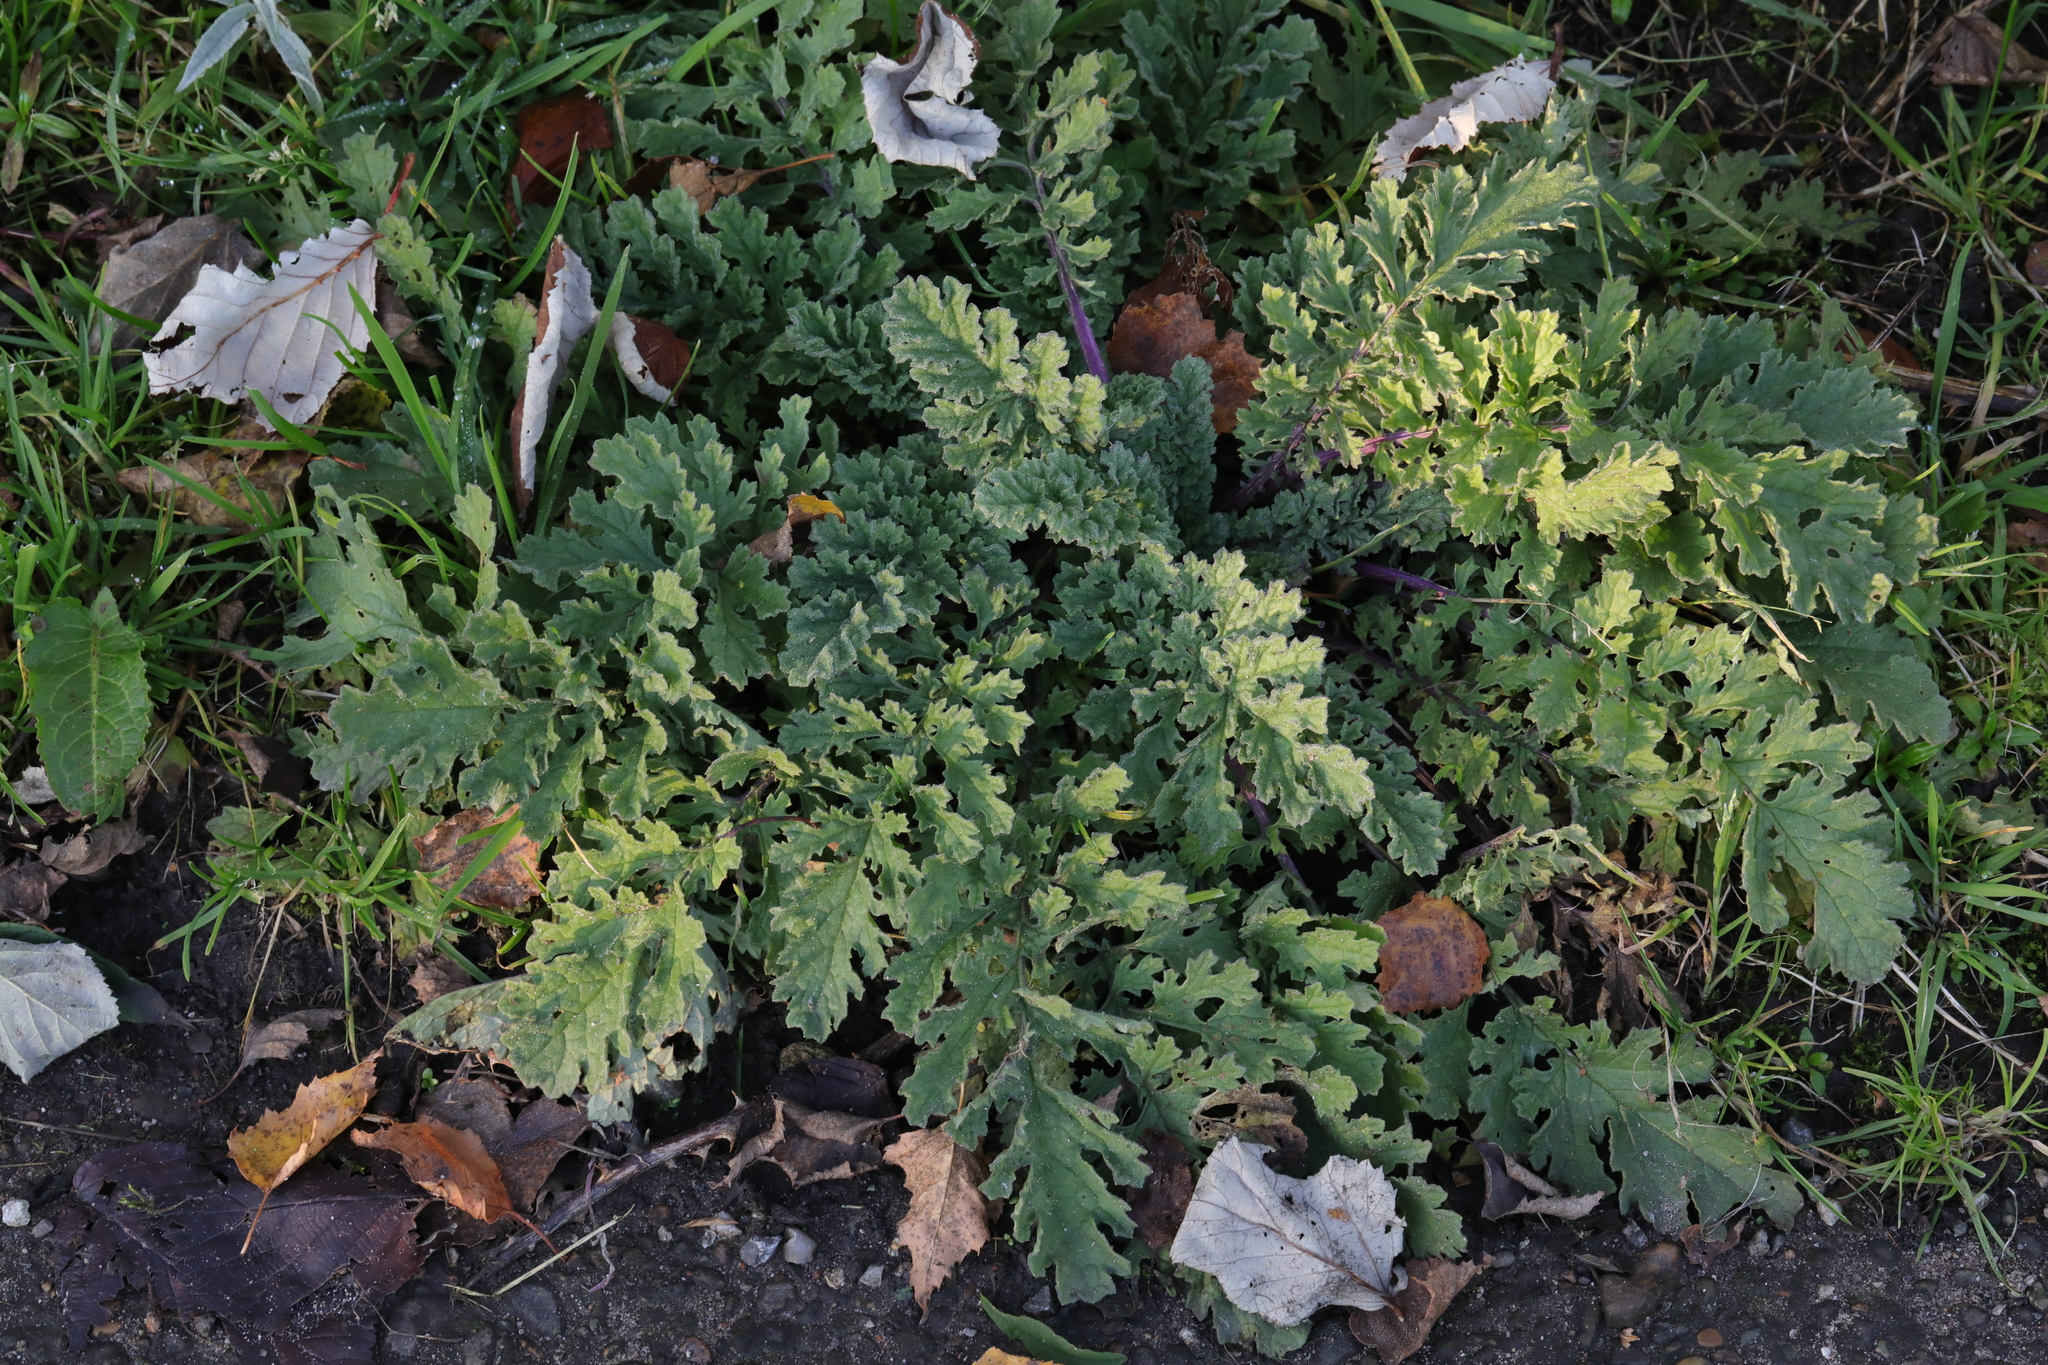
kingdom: Plantae
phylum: Tracheophyta
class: Magnoliopsida
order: Asterales
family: Asteraceae
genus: Jacobaea
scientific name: Jacobaea vulgaris
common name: Stinking willie
